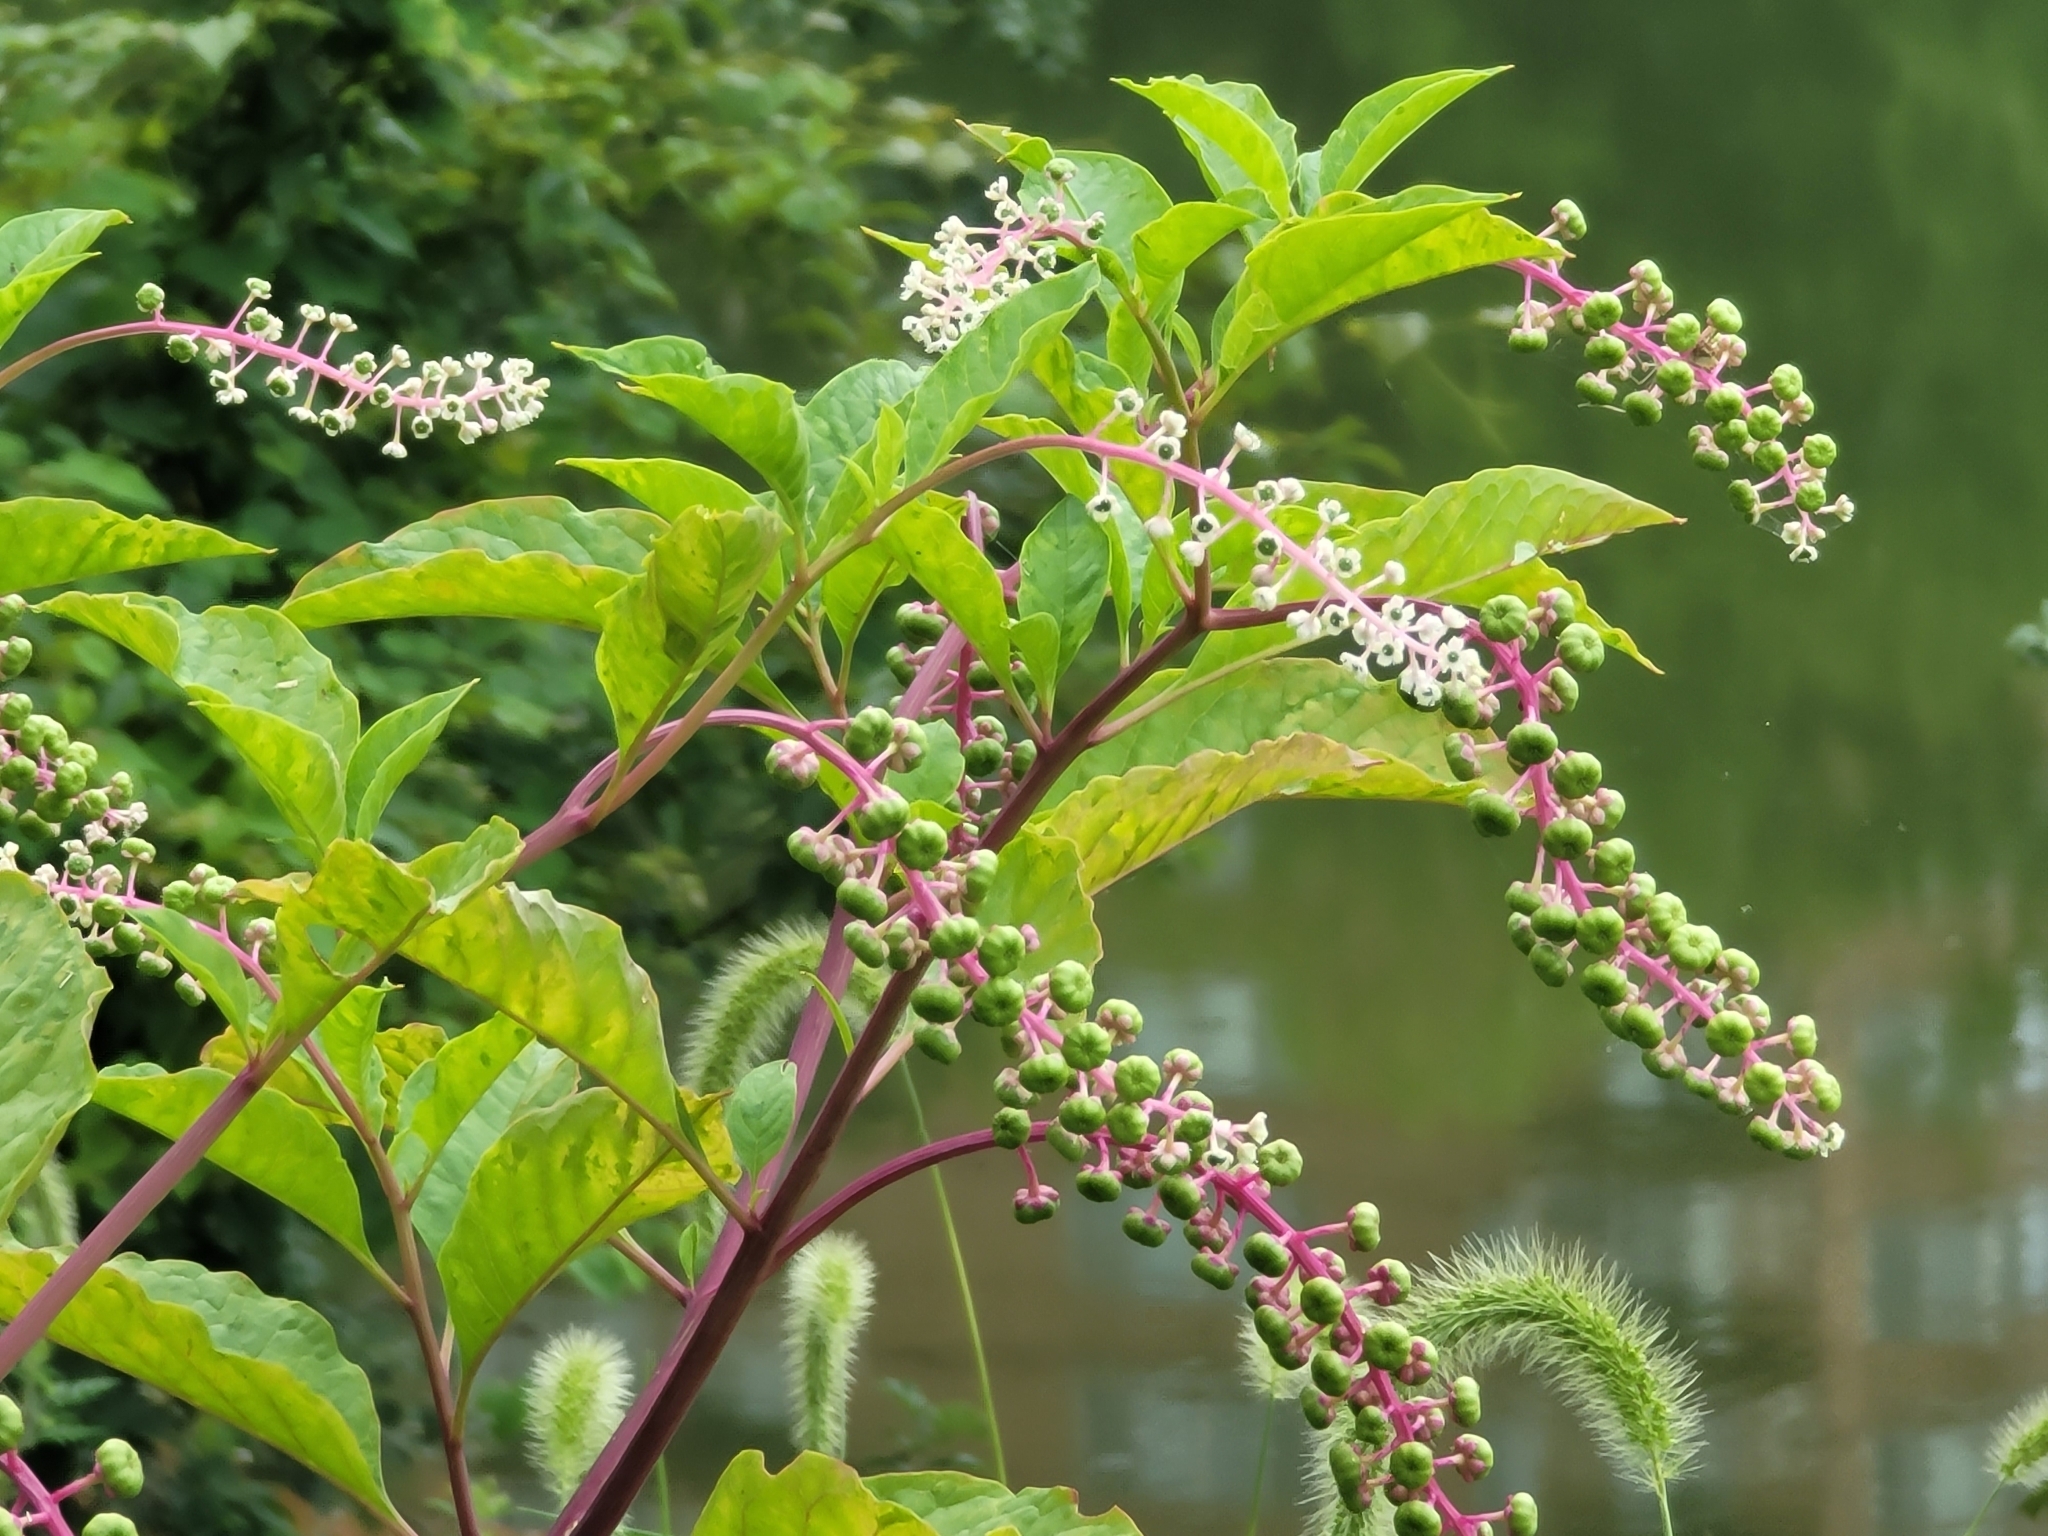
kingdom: Plantae
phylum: Tracheophyta
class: Magnoliopsida
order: Caryophyllales
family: Phytolaccaceae
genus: Phytolacca
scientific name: Phytolacca americana
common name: American pokeweed
